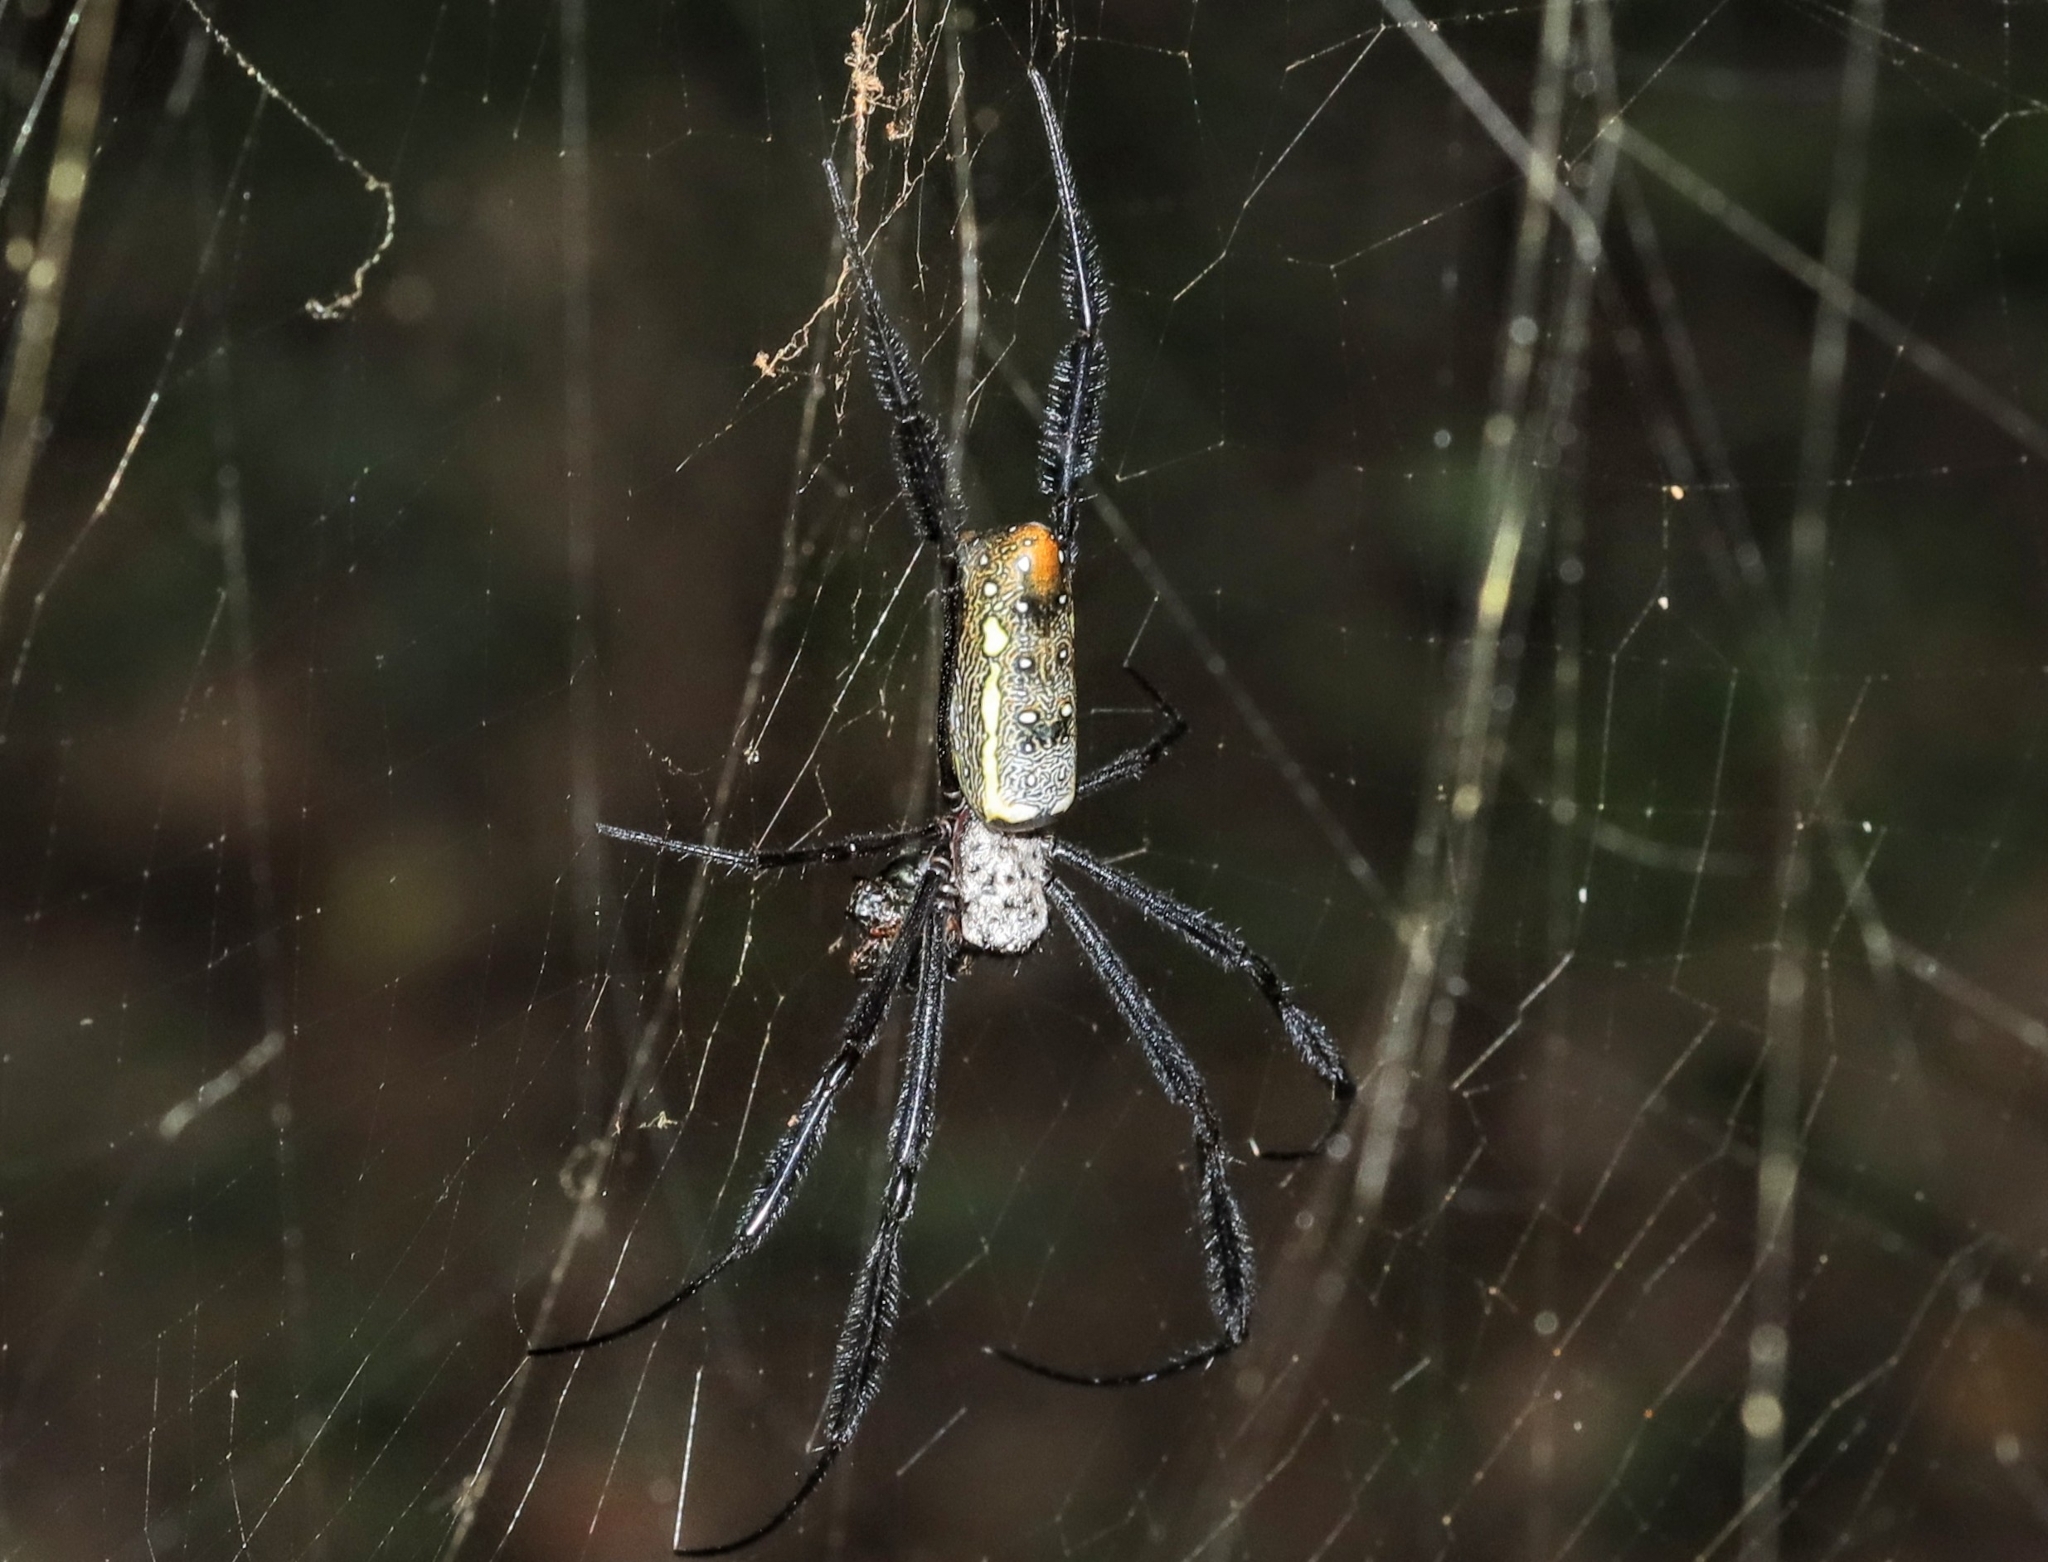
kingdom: Animalia
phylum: Arthropoda
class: Arachnida
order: Araneae
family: Araneidae
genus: Trichonephila
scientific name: Trichonephila fenestrata
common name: Hairy golden orb weaver
